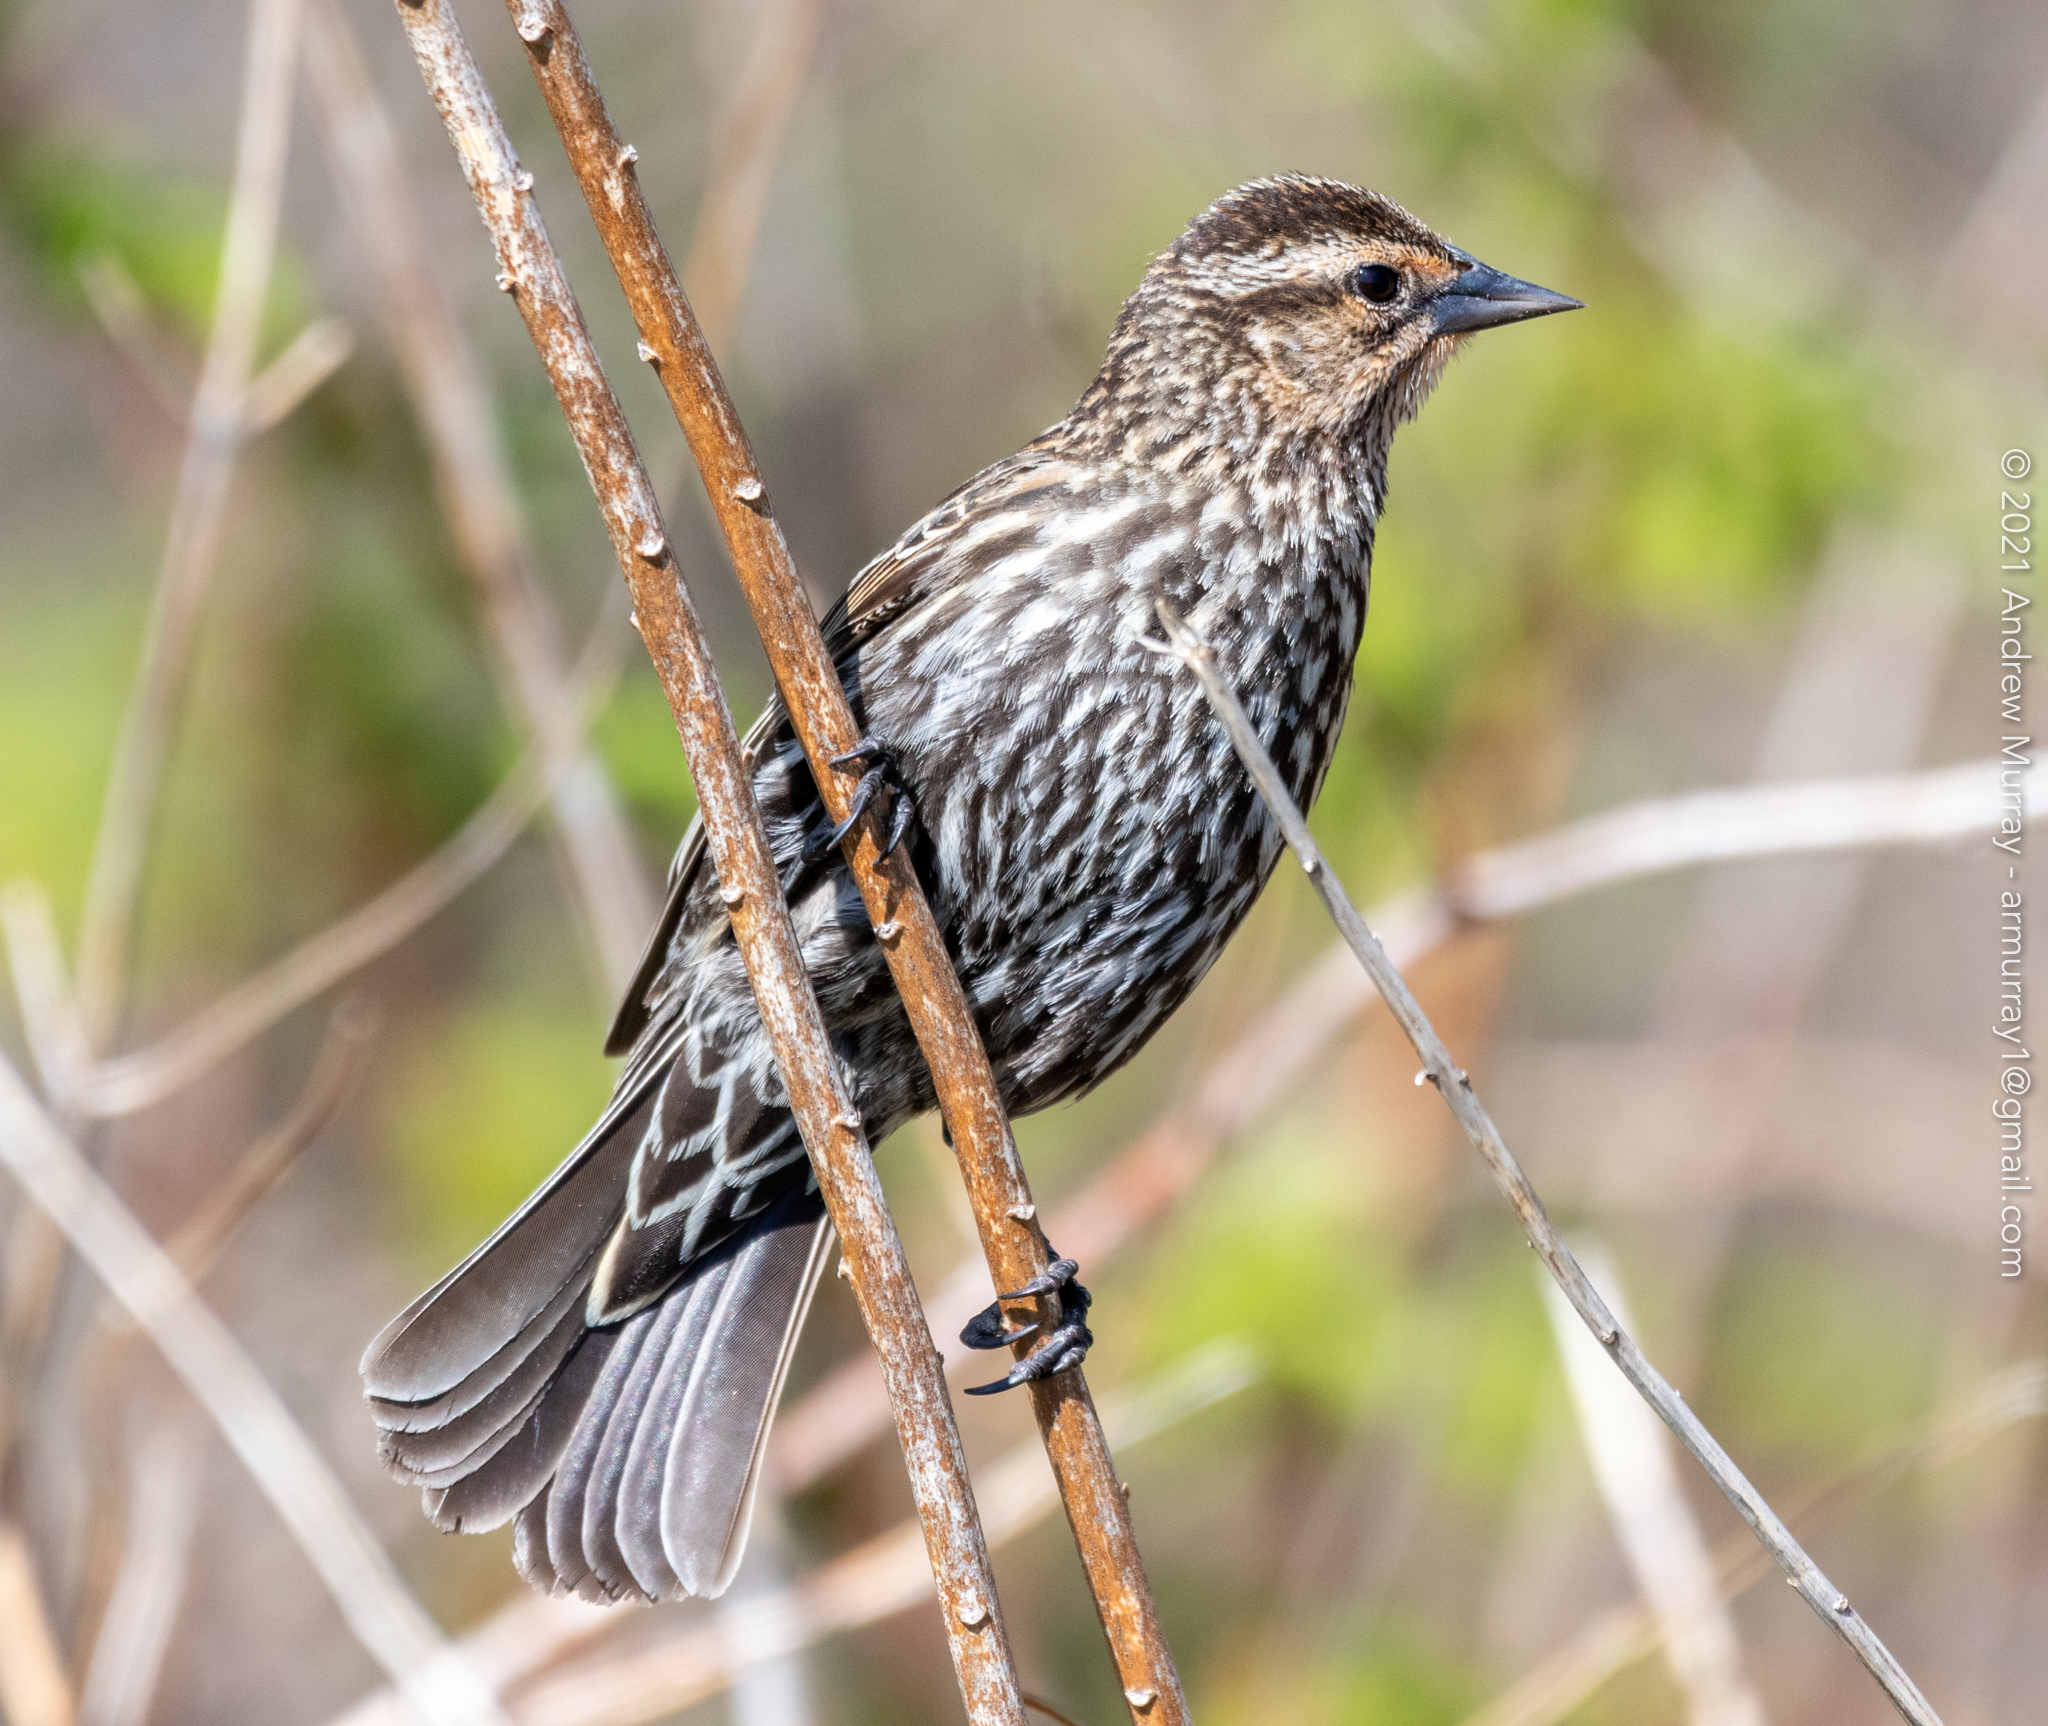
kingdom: Animalia
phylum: Chordata
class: Aves
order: Passeriformes
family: Icteridae
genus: Agelaius
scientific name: Agelaius phoeniceus
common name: Red-winged blackbird
